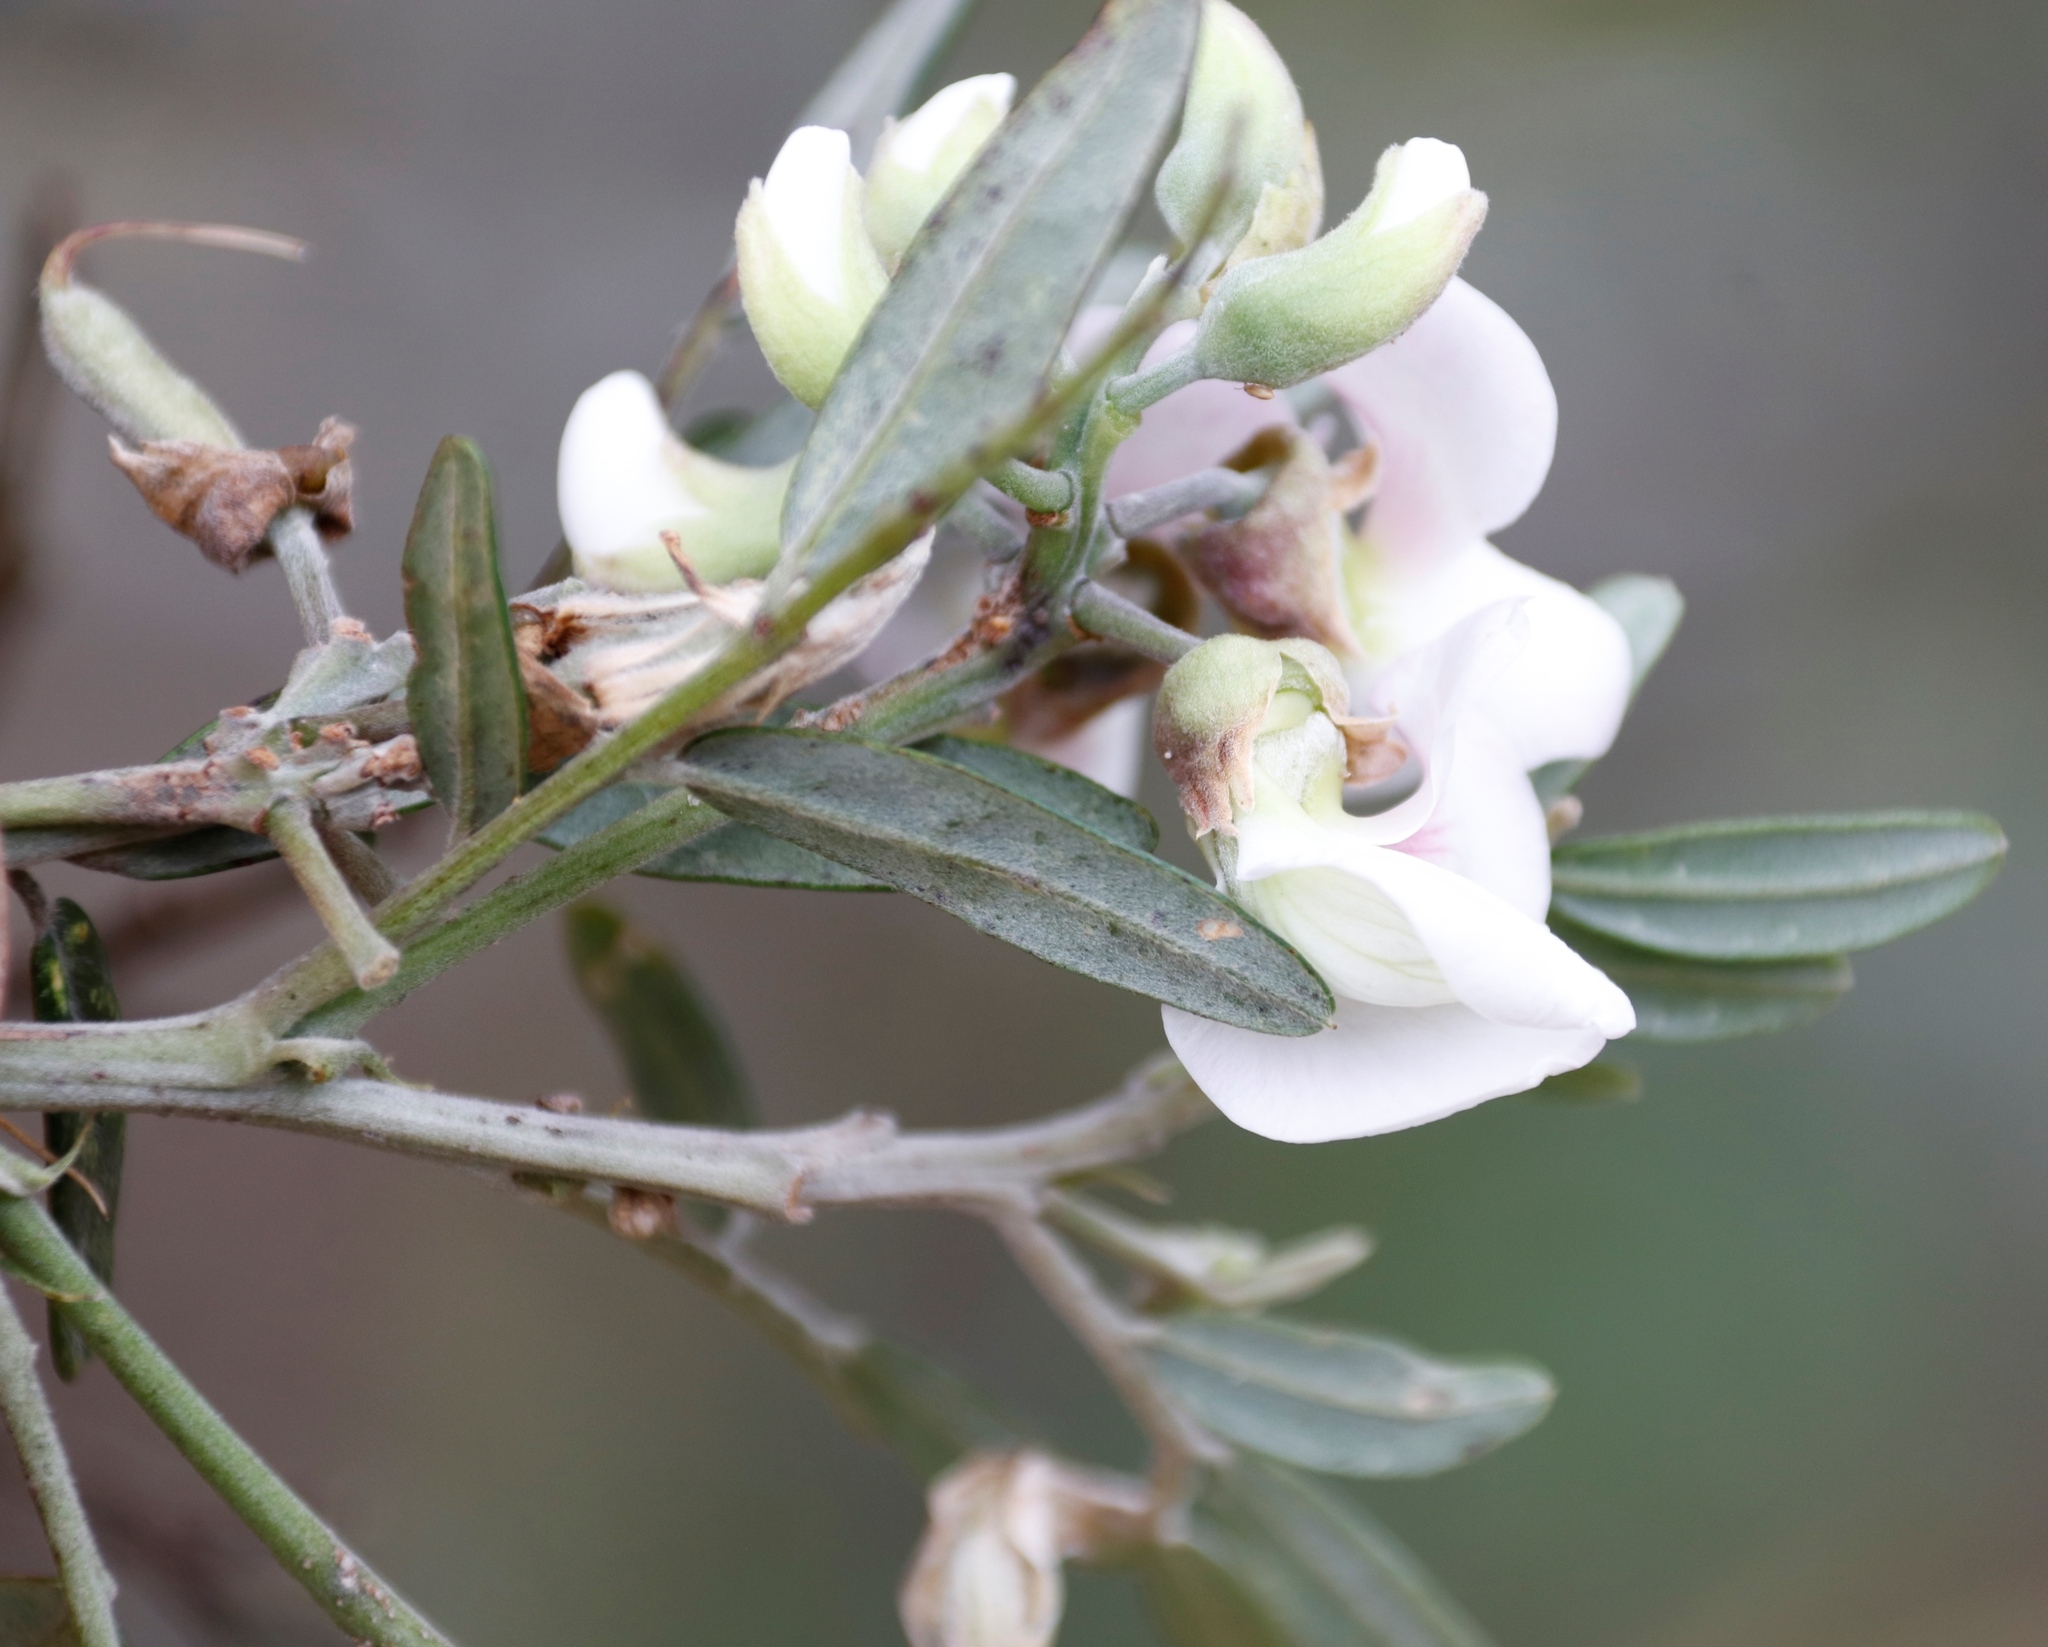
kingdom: Plantae
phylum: Tracheophyta
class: Magnoliopsida
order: Fabales
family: Fabaceae
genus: Virgilia
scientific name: Virgilia oroboides
